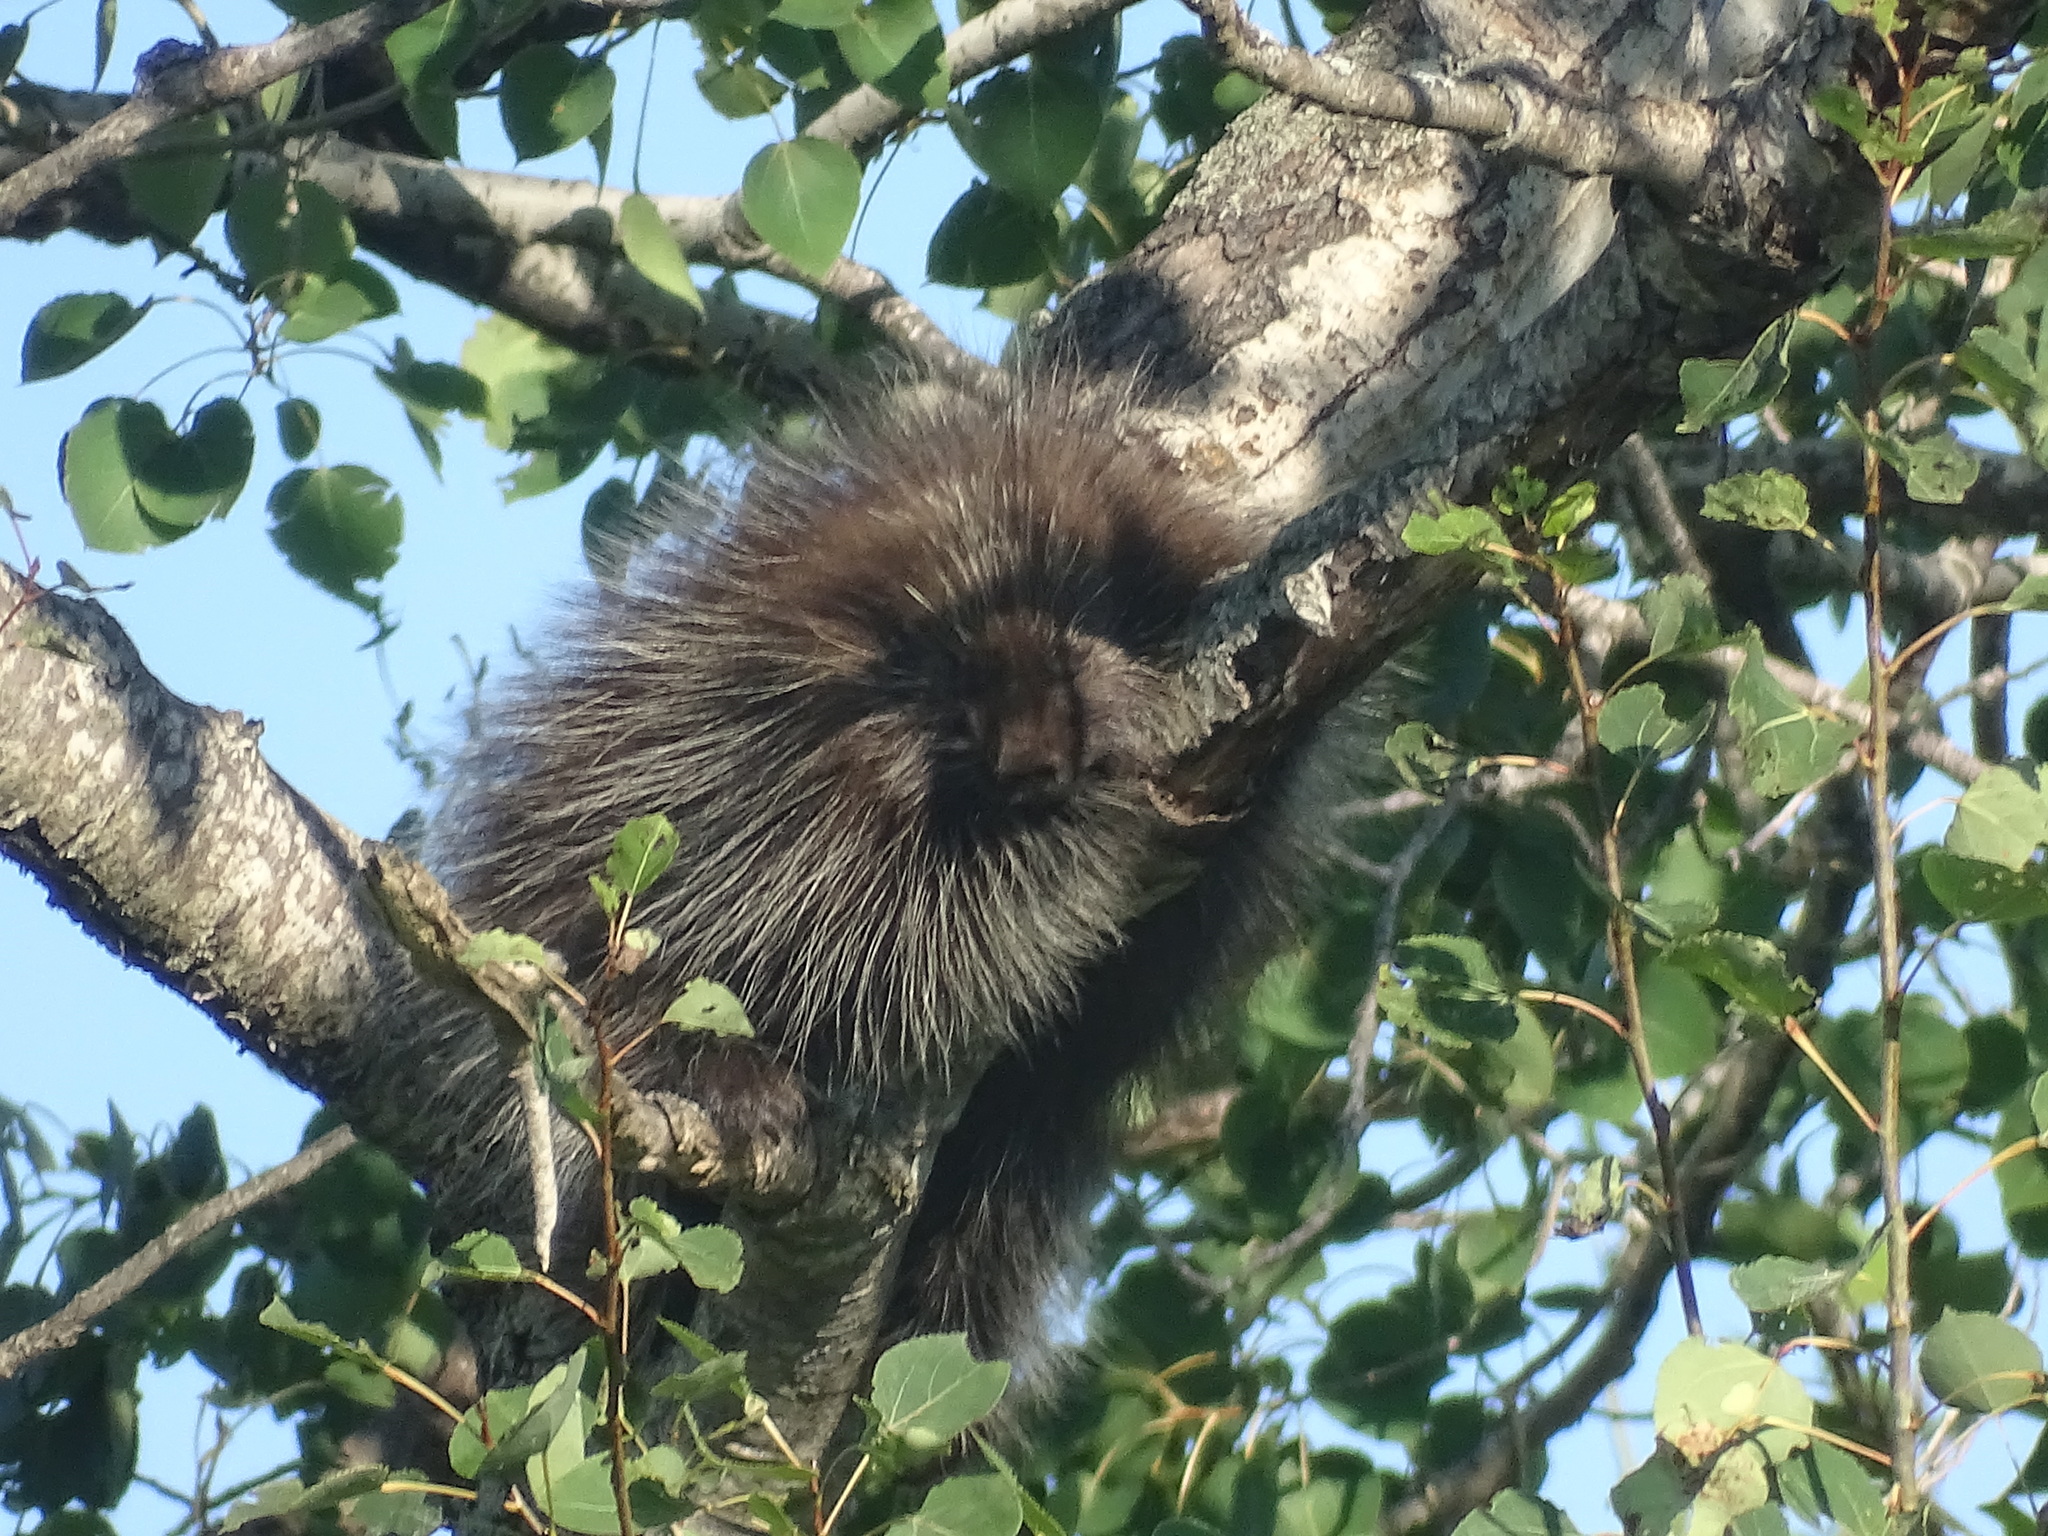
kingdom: Animalia
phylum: Chordata
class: Mammalia
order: Rodentia
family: Erethizontidae
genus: Erethizon
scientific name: Erethizon dorsatus
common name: North american porcupine
